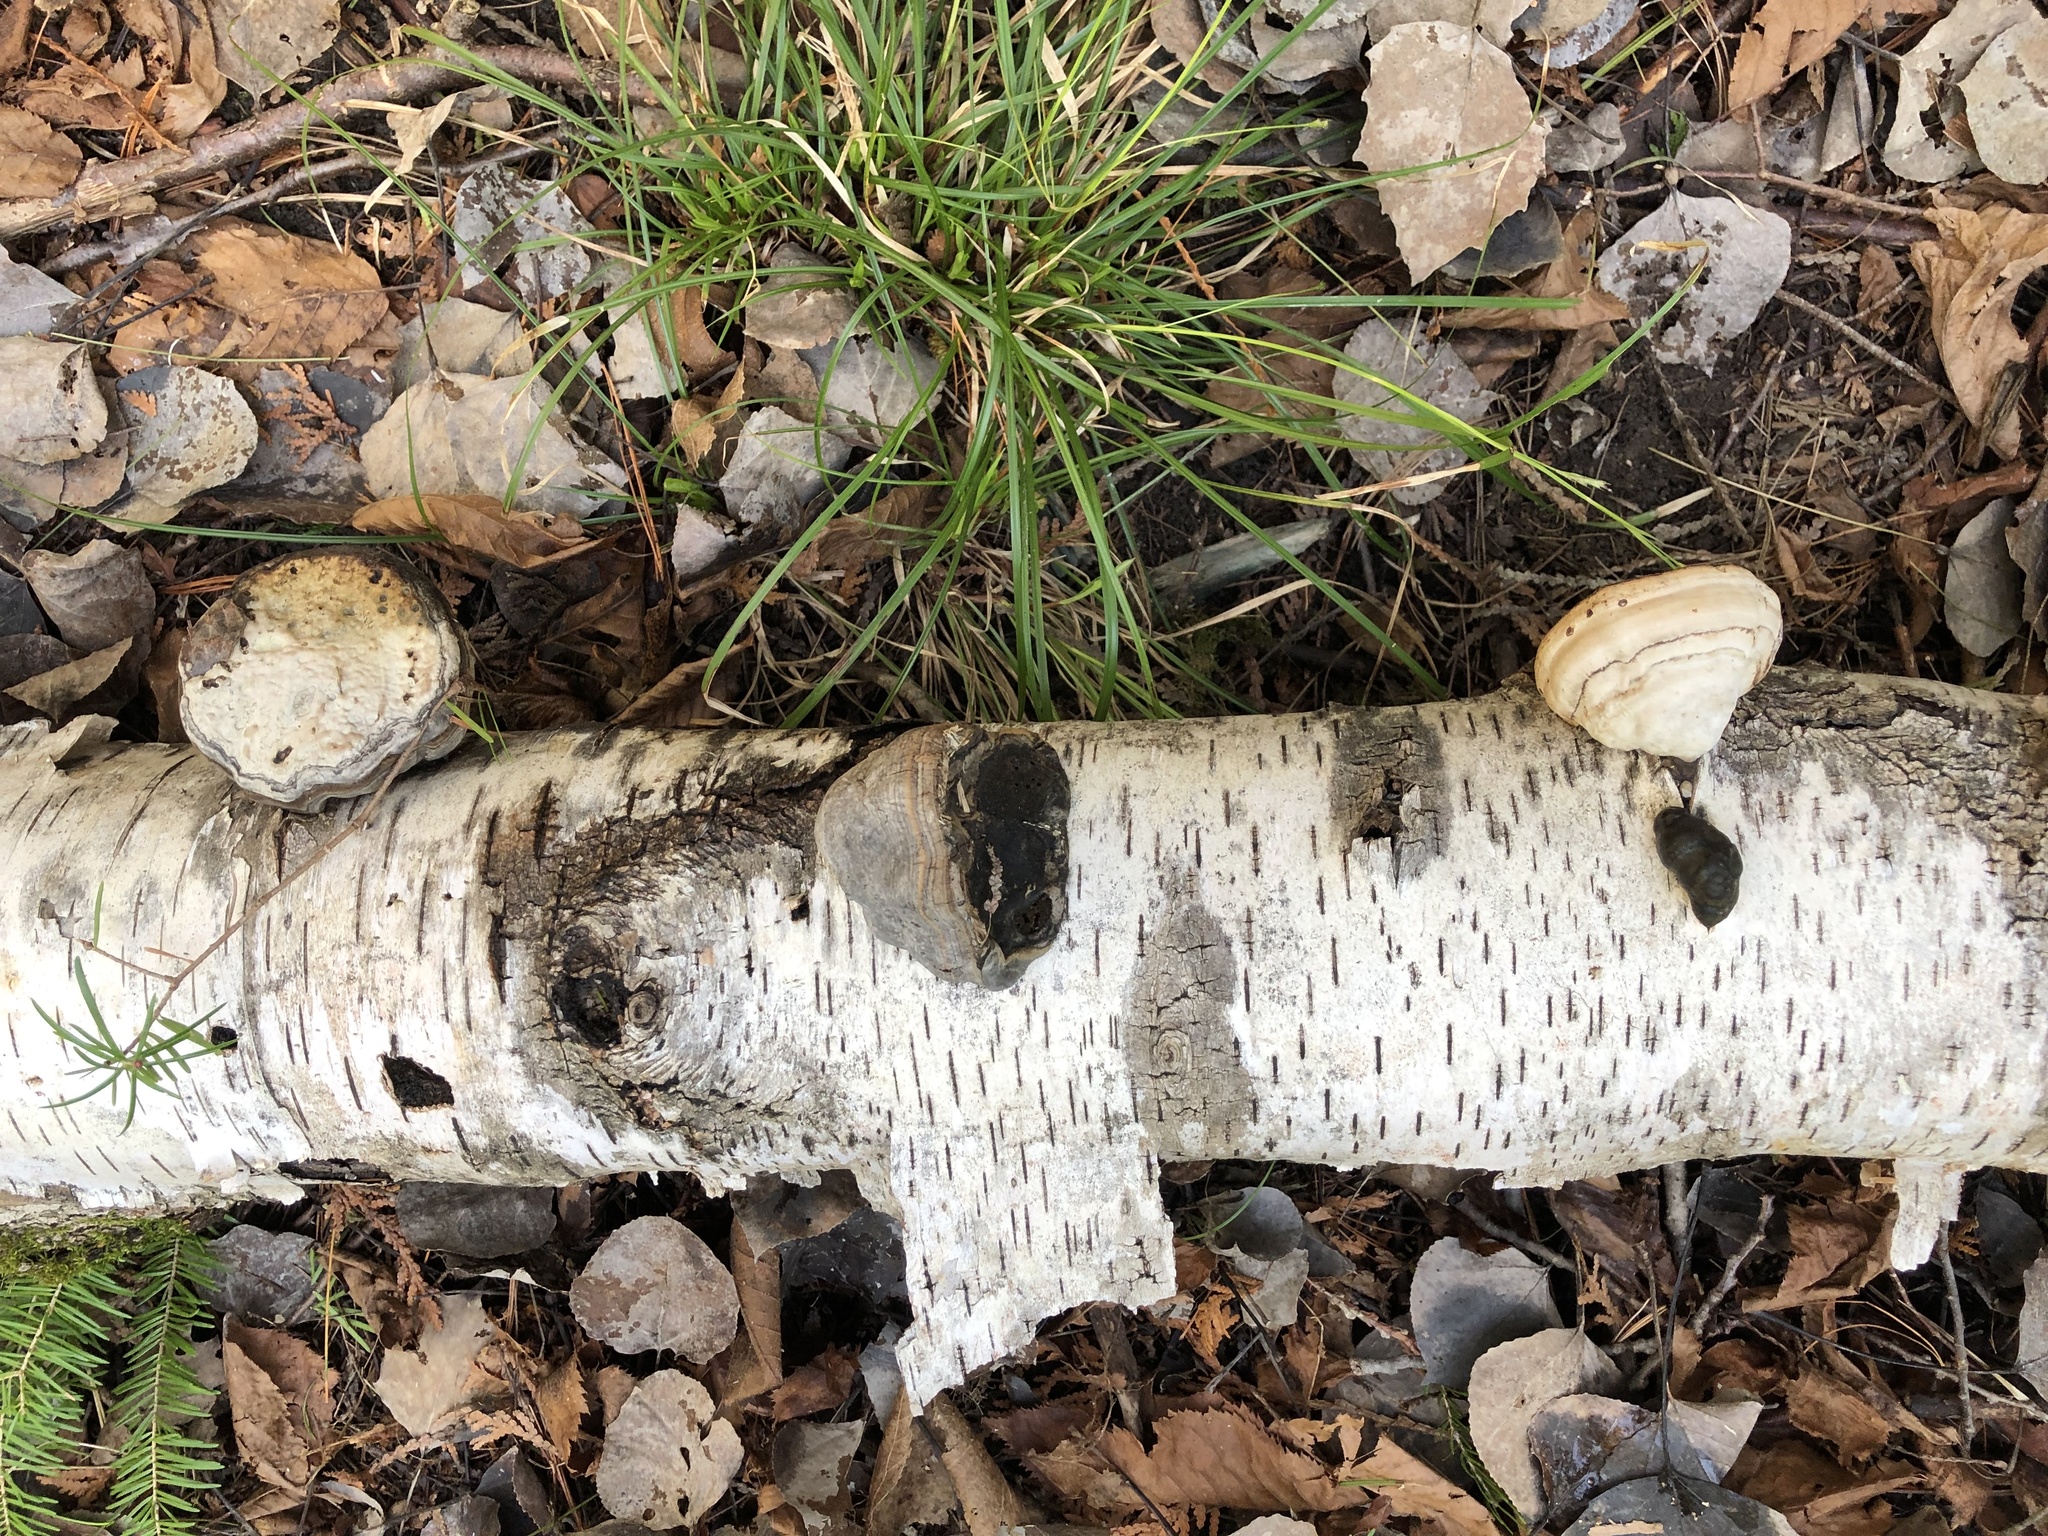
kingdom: Fungi
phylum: Basidiomycota
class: Agaricomycetes
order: Polyporales
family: Polyporaceae
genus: Fomes
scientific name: Fomes fomentarius
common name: Hoof fungus
